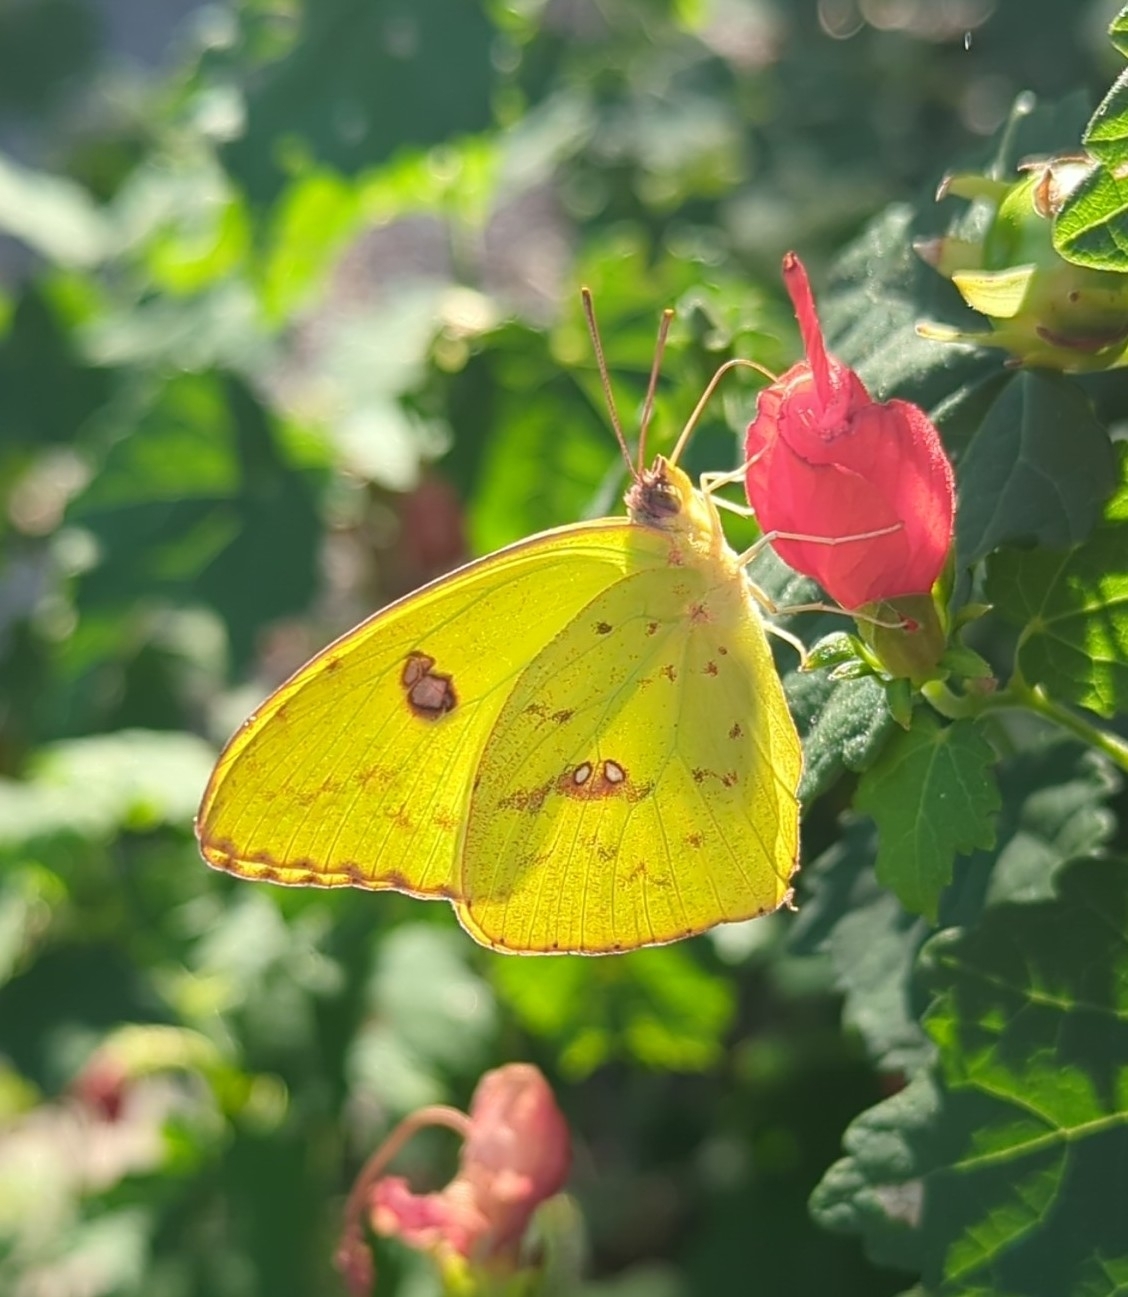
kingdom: Animalia
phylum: Arthropoda
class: Insecta
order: Lepidoptera
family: Pieridae
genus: Phoebis
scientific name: Phoebis sennae
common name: Cloudless sulphur
